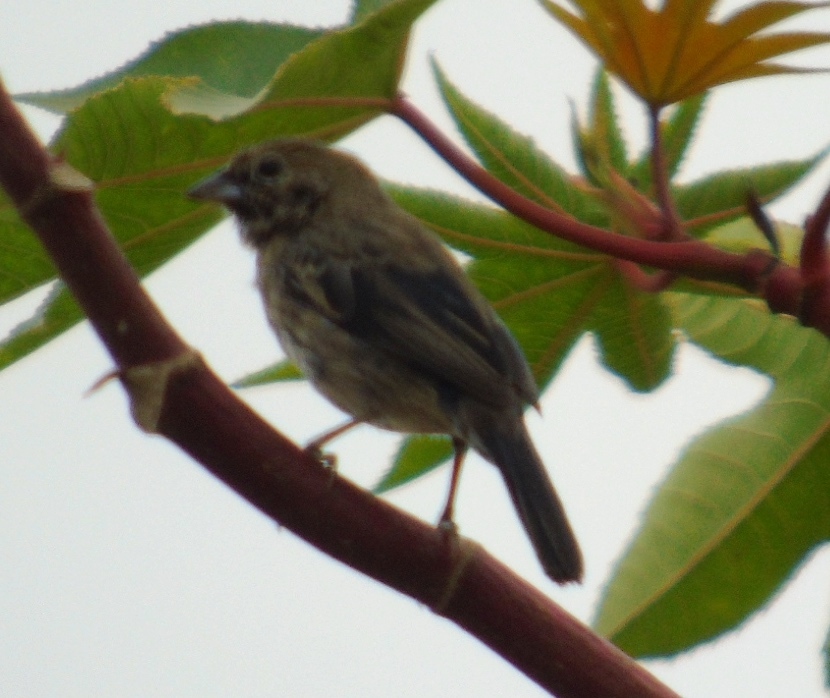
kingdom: Animalia
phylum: Chordata
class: Aves
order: Passeriformes
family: Thraupidae
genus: Volatinia
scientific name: Volatinia jacarina
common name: Blue-black grassquit
